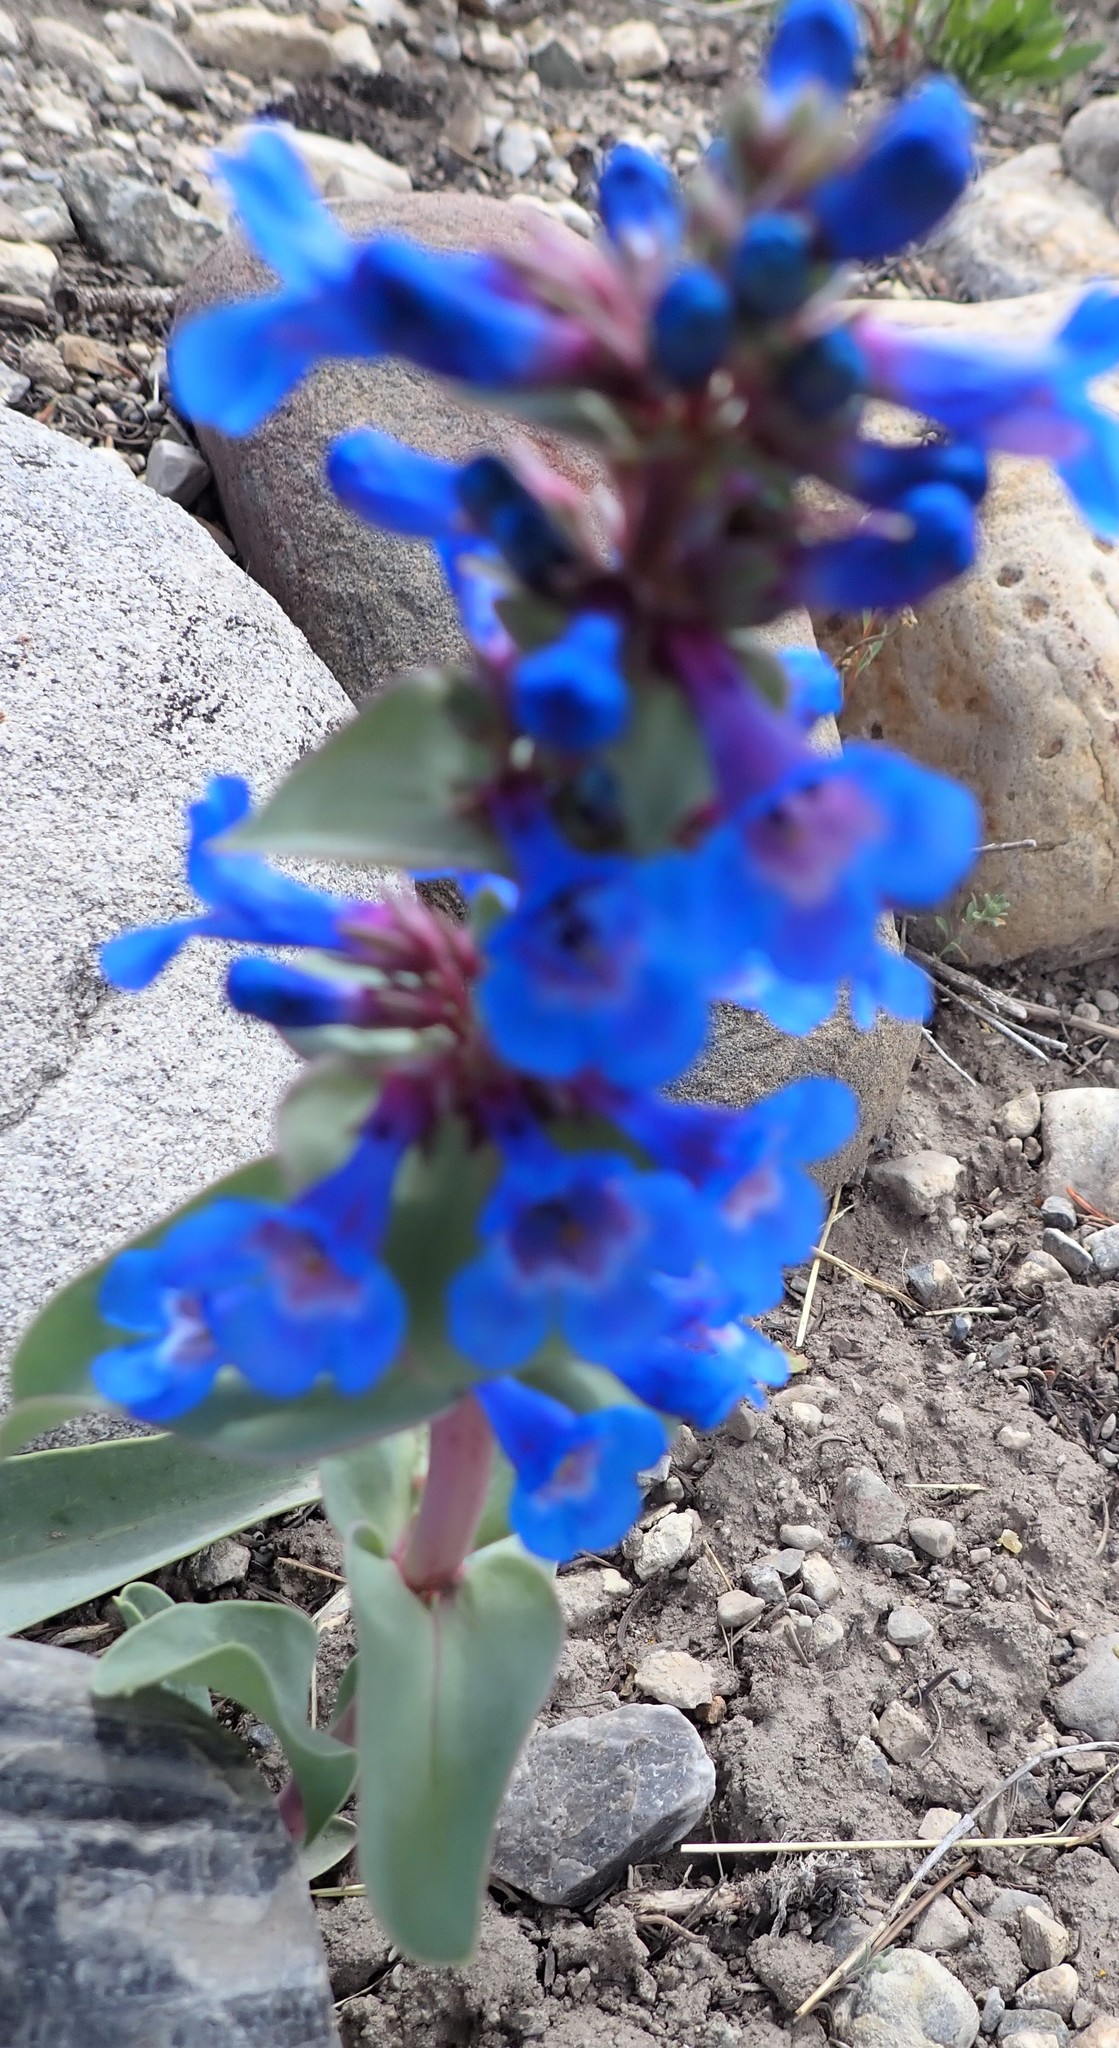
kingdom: Plantae
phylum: Tracheophyta
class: Magnoliopsida
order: Lamiales
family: Plantaginaceae
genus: Penstemon
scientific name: Penstemon nitidus
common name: Shining penstemon
